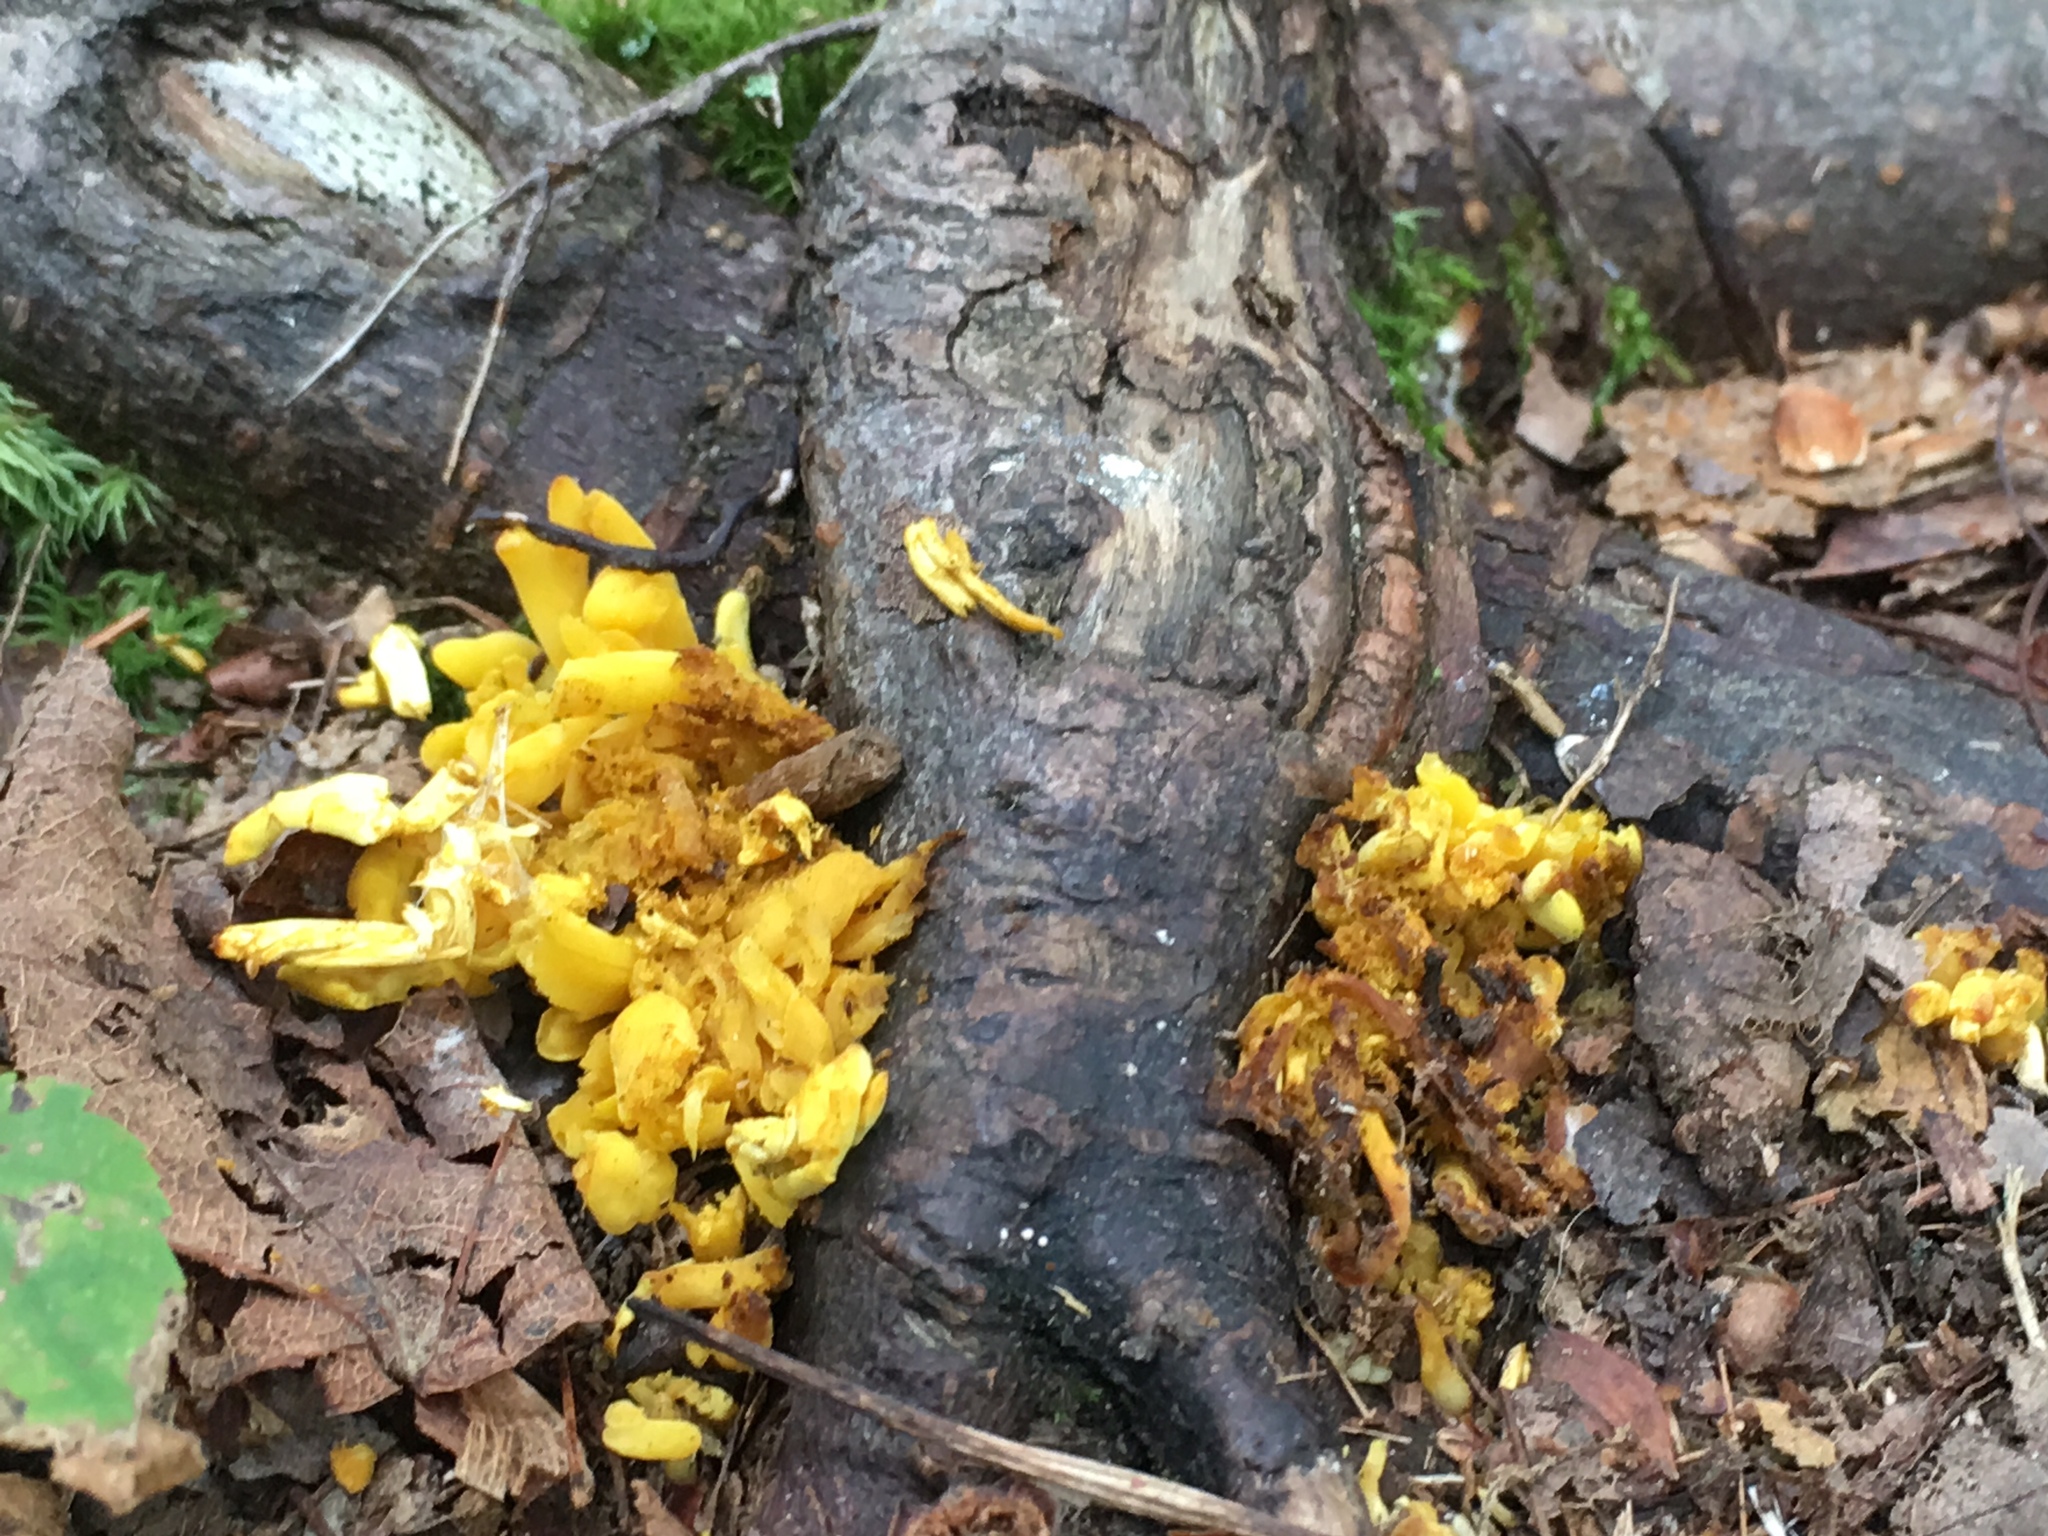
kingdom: Plantae
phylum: Tracheophyta
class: Magnoliopsida
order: Rosales
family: Moraceae
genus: Maclura
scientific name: Maclura pomifera
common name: Osage-orange
